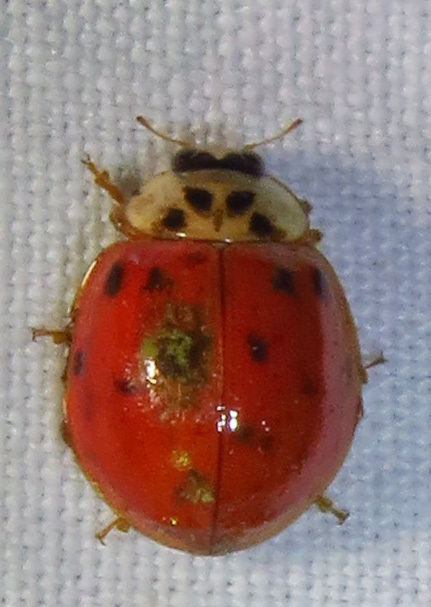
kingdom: Animalia
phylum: Arthropoda
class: Insecta
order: Coleoptera
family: Coccinellidae
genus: Harmonia
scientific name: Harmonia axyridis
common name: Harlequin ladybird
